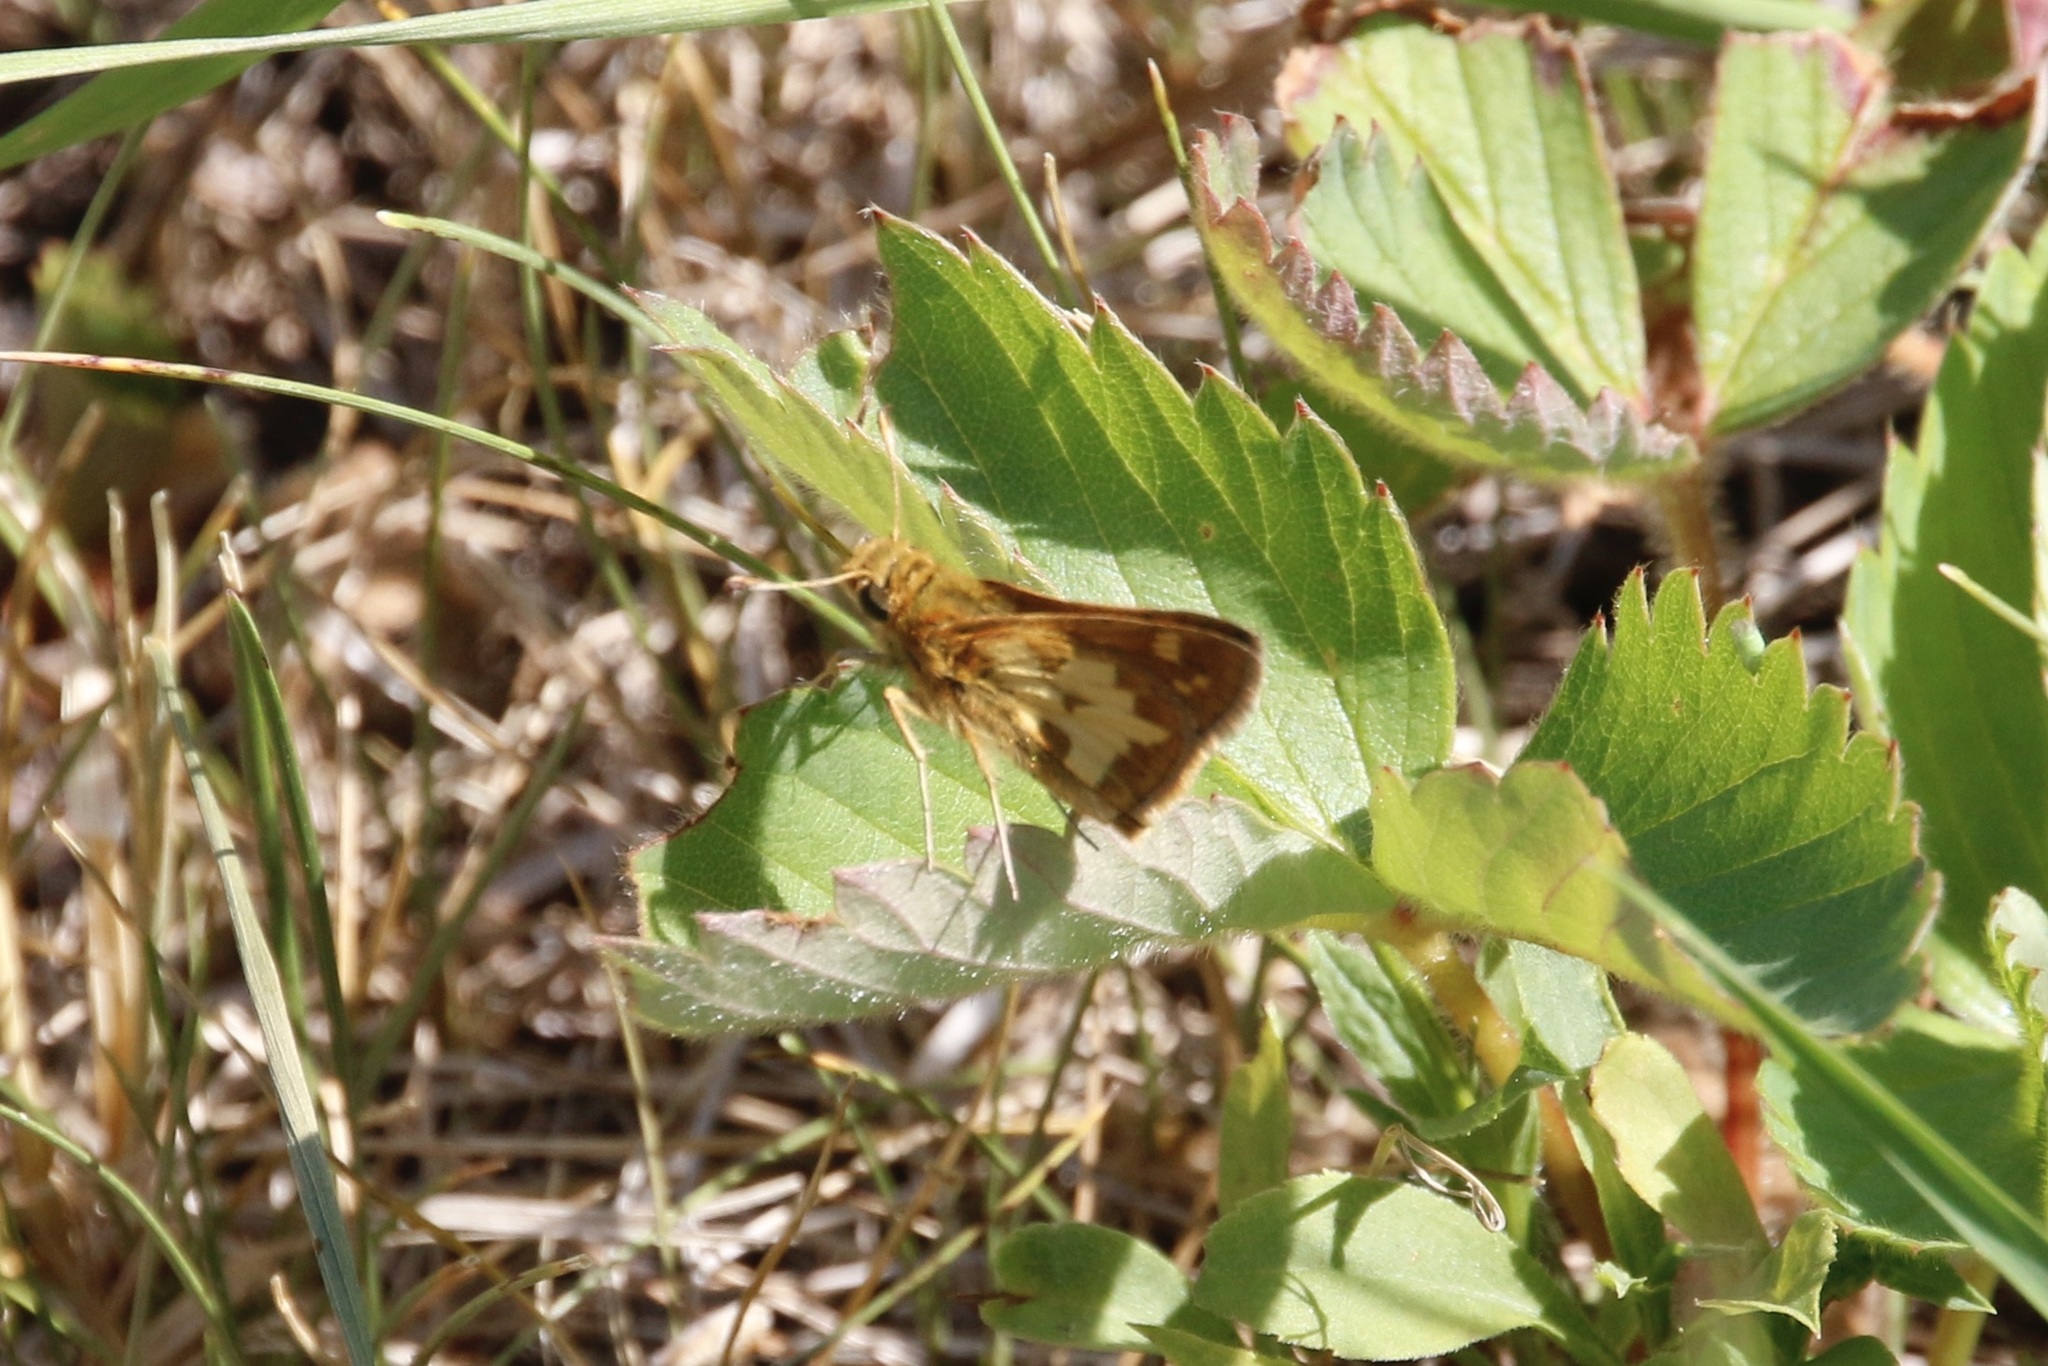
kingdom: Animalia
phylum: Arthropoda
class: Insecta
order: Lepidoptera
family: Hesperiidae
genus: Polites
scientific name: Polites coras
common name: Peck's skipper
